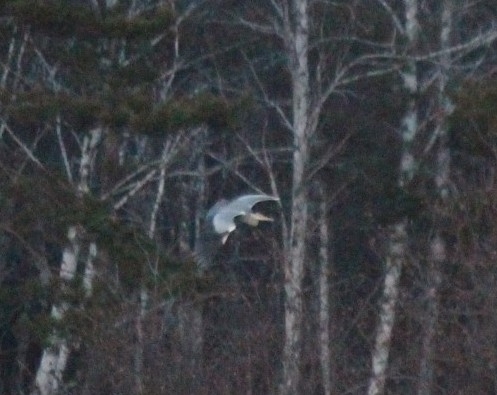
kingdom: Animalia
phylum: Chordata
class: Aves
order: Pelecaniformes
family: Ardeidae
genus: Ardea
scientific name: Ardea cinerea
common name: Grey heron
